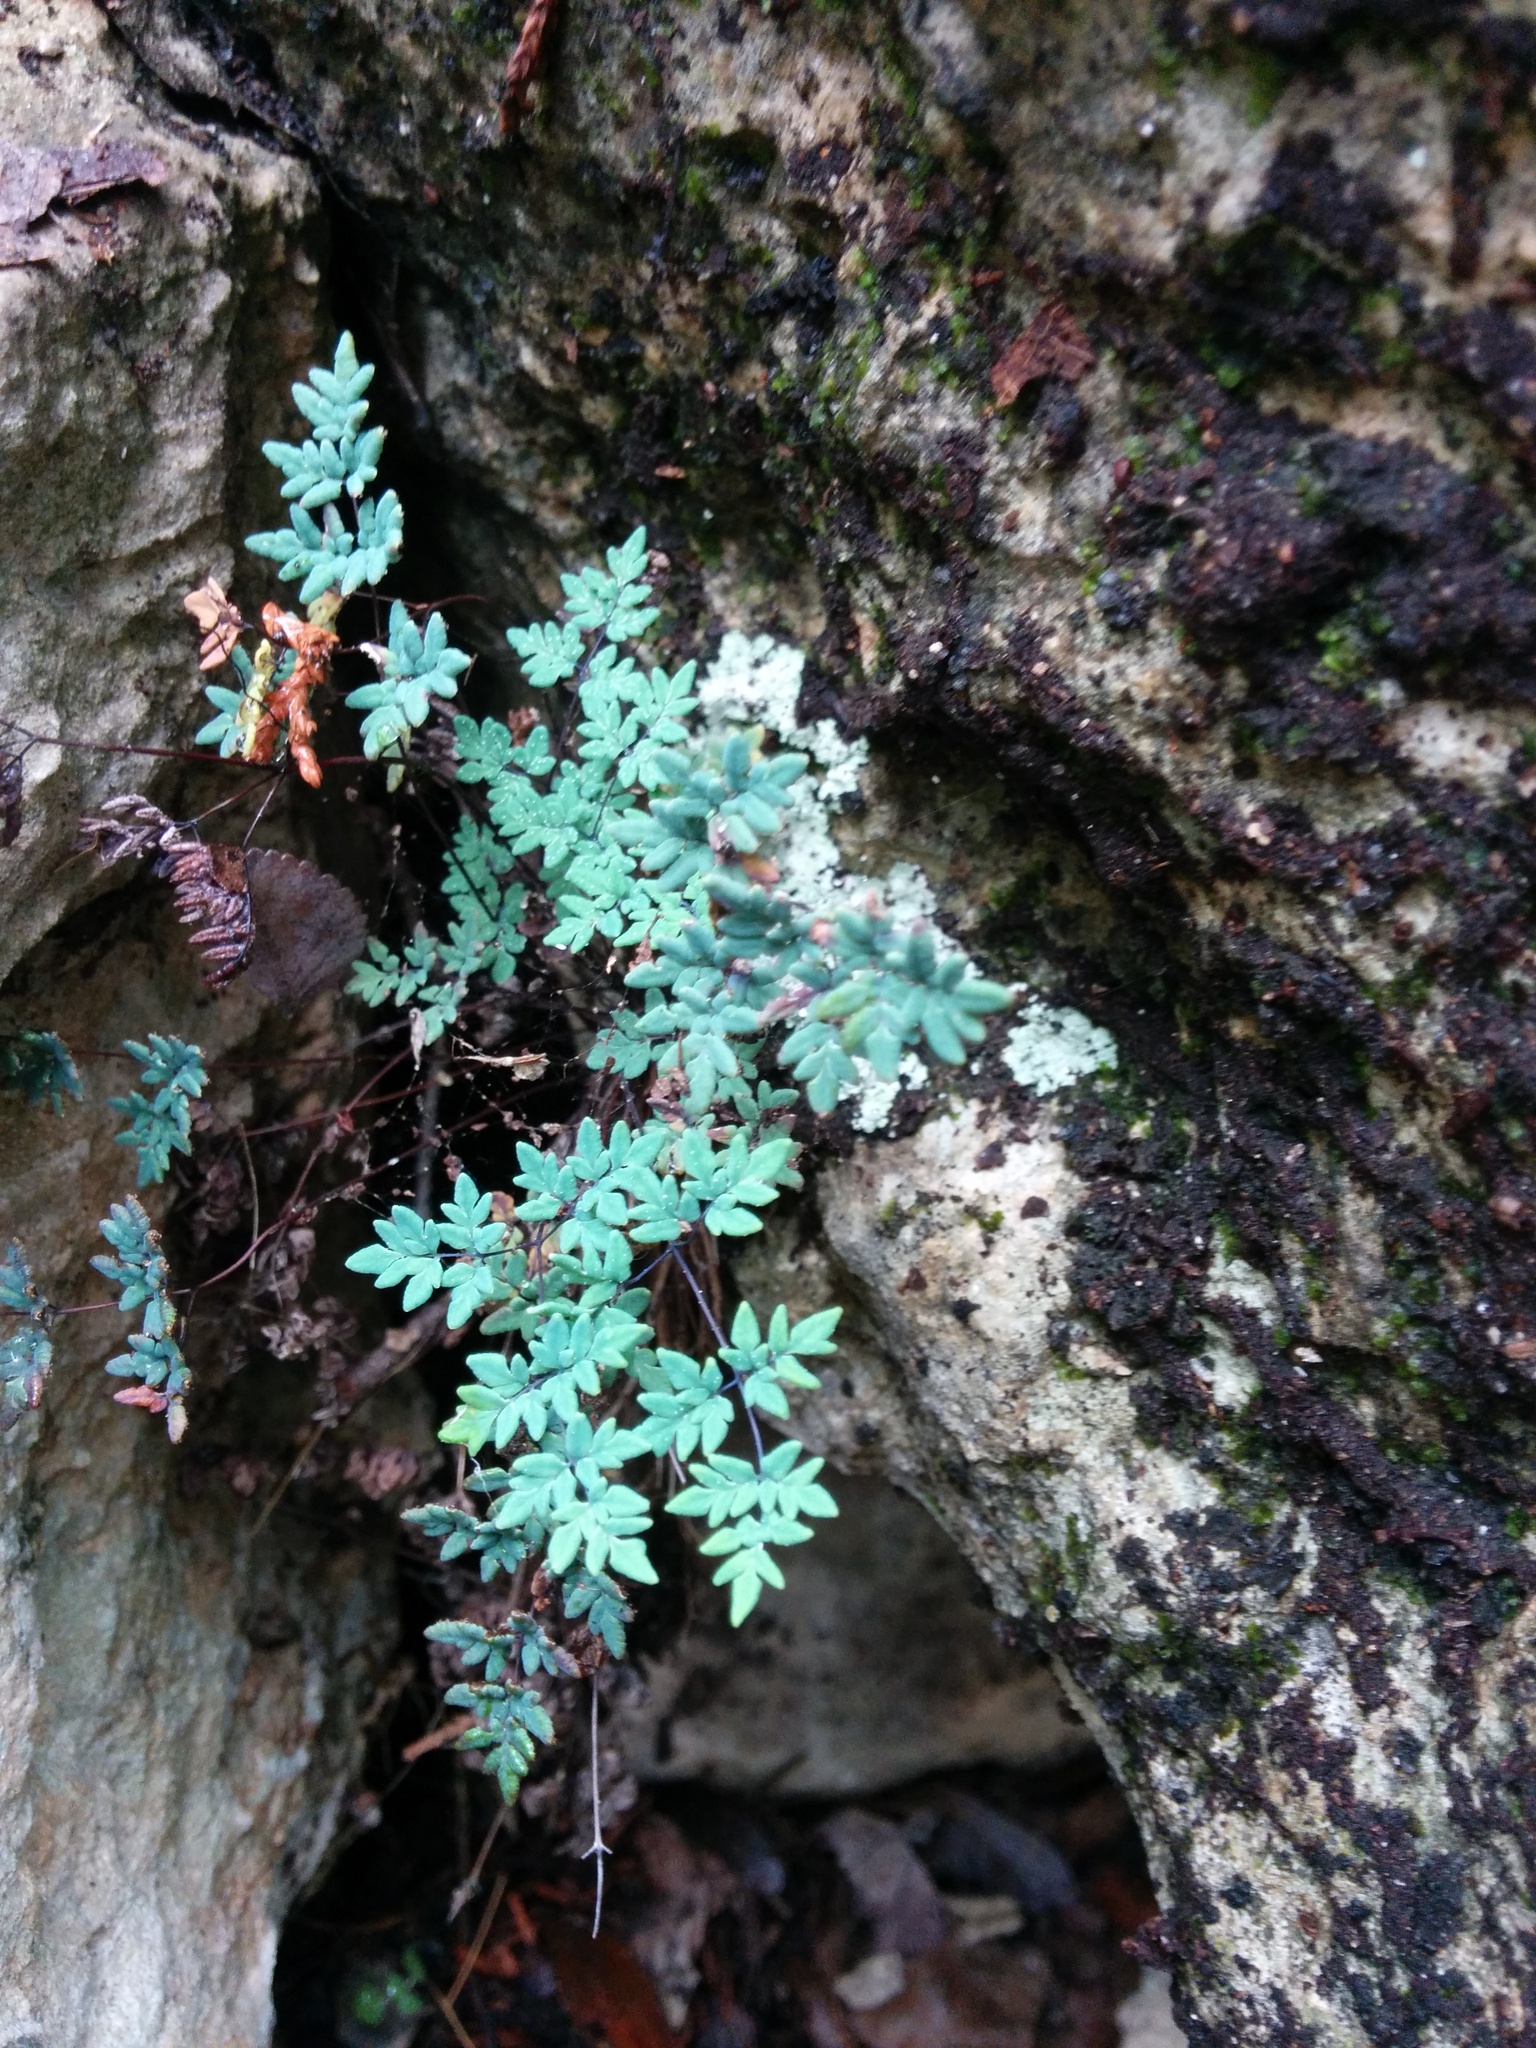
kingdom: Plantae
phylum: Tracheophyta
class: Polypodiopsida
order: Polypodiales
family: Pteridaceae
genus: Argyrochosma
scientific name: Argyrochosma dealbata
